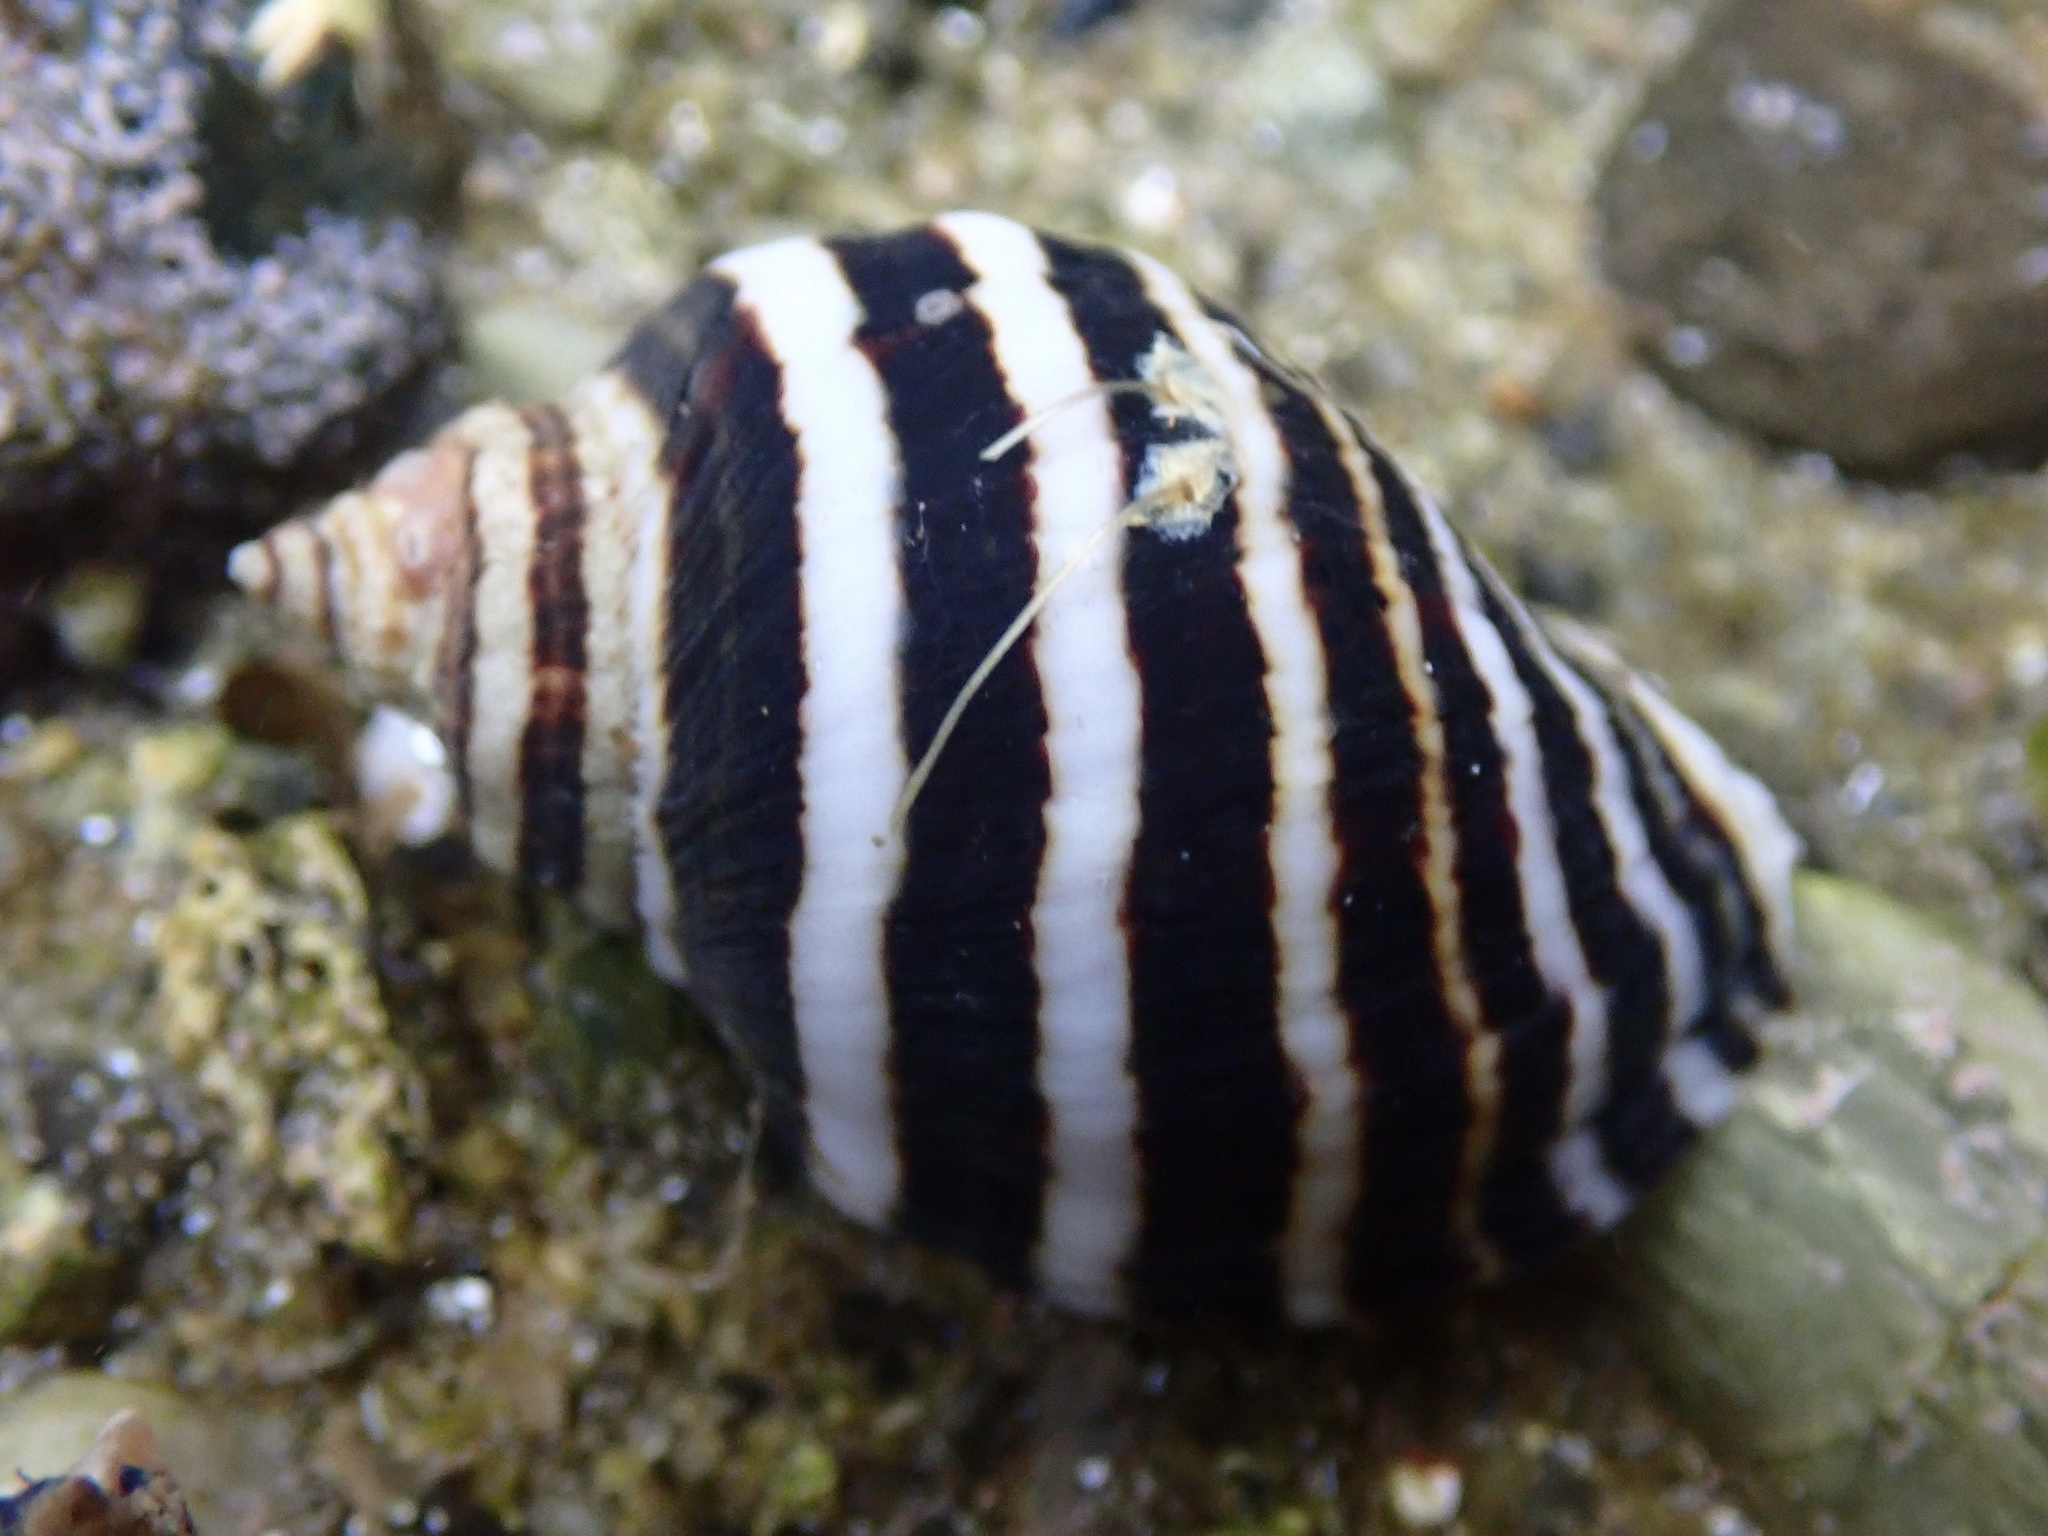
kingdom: Animalia
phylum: Mollusca
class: Gastropoda
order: Neogastropoda
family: Muricidae
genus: Nucella
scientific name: Nucella emarginata
